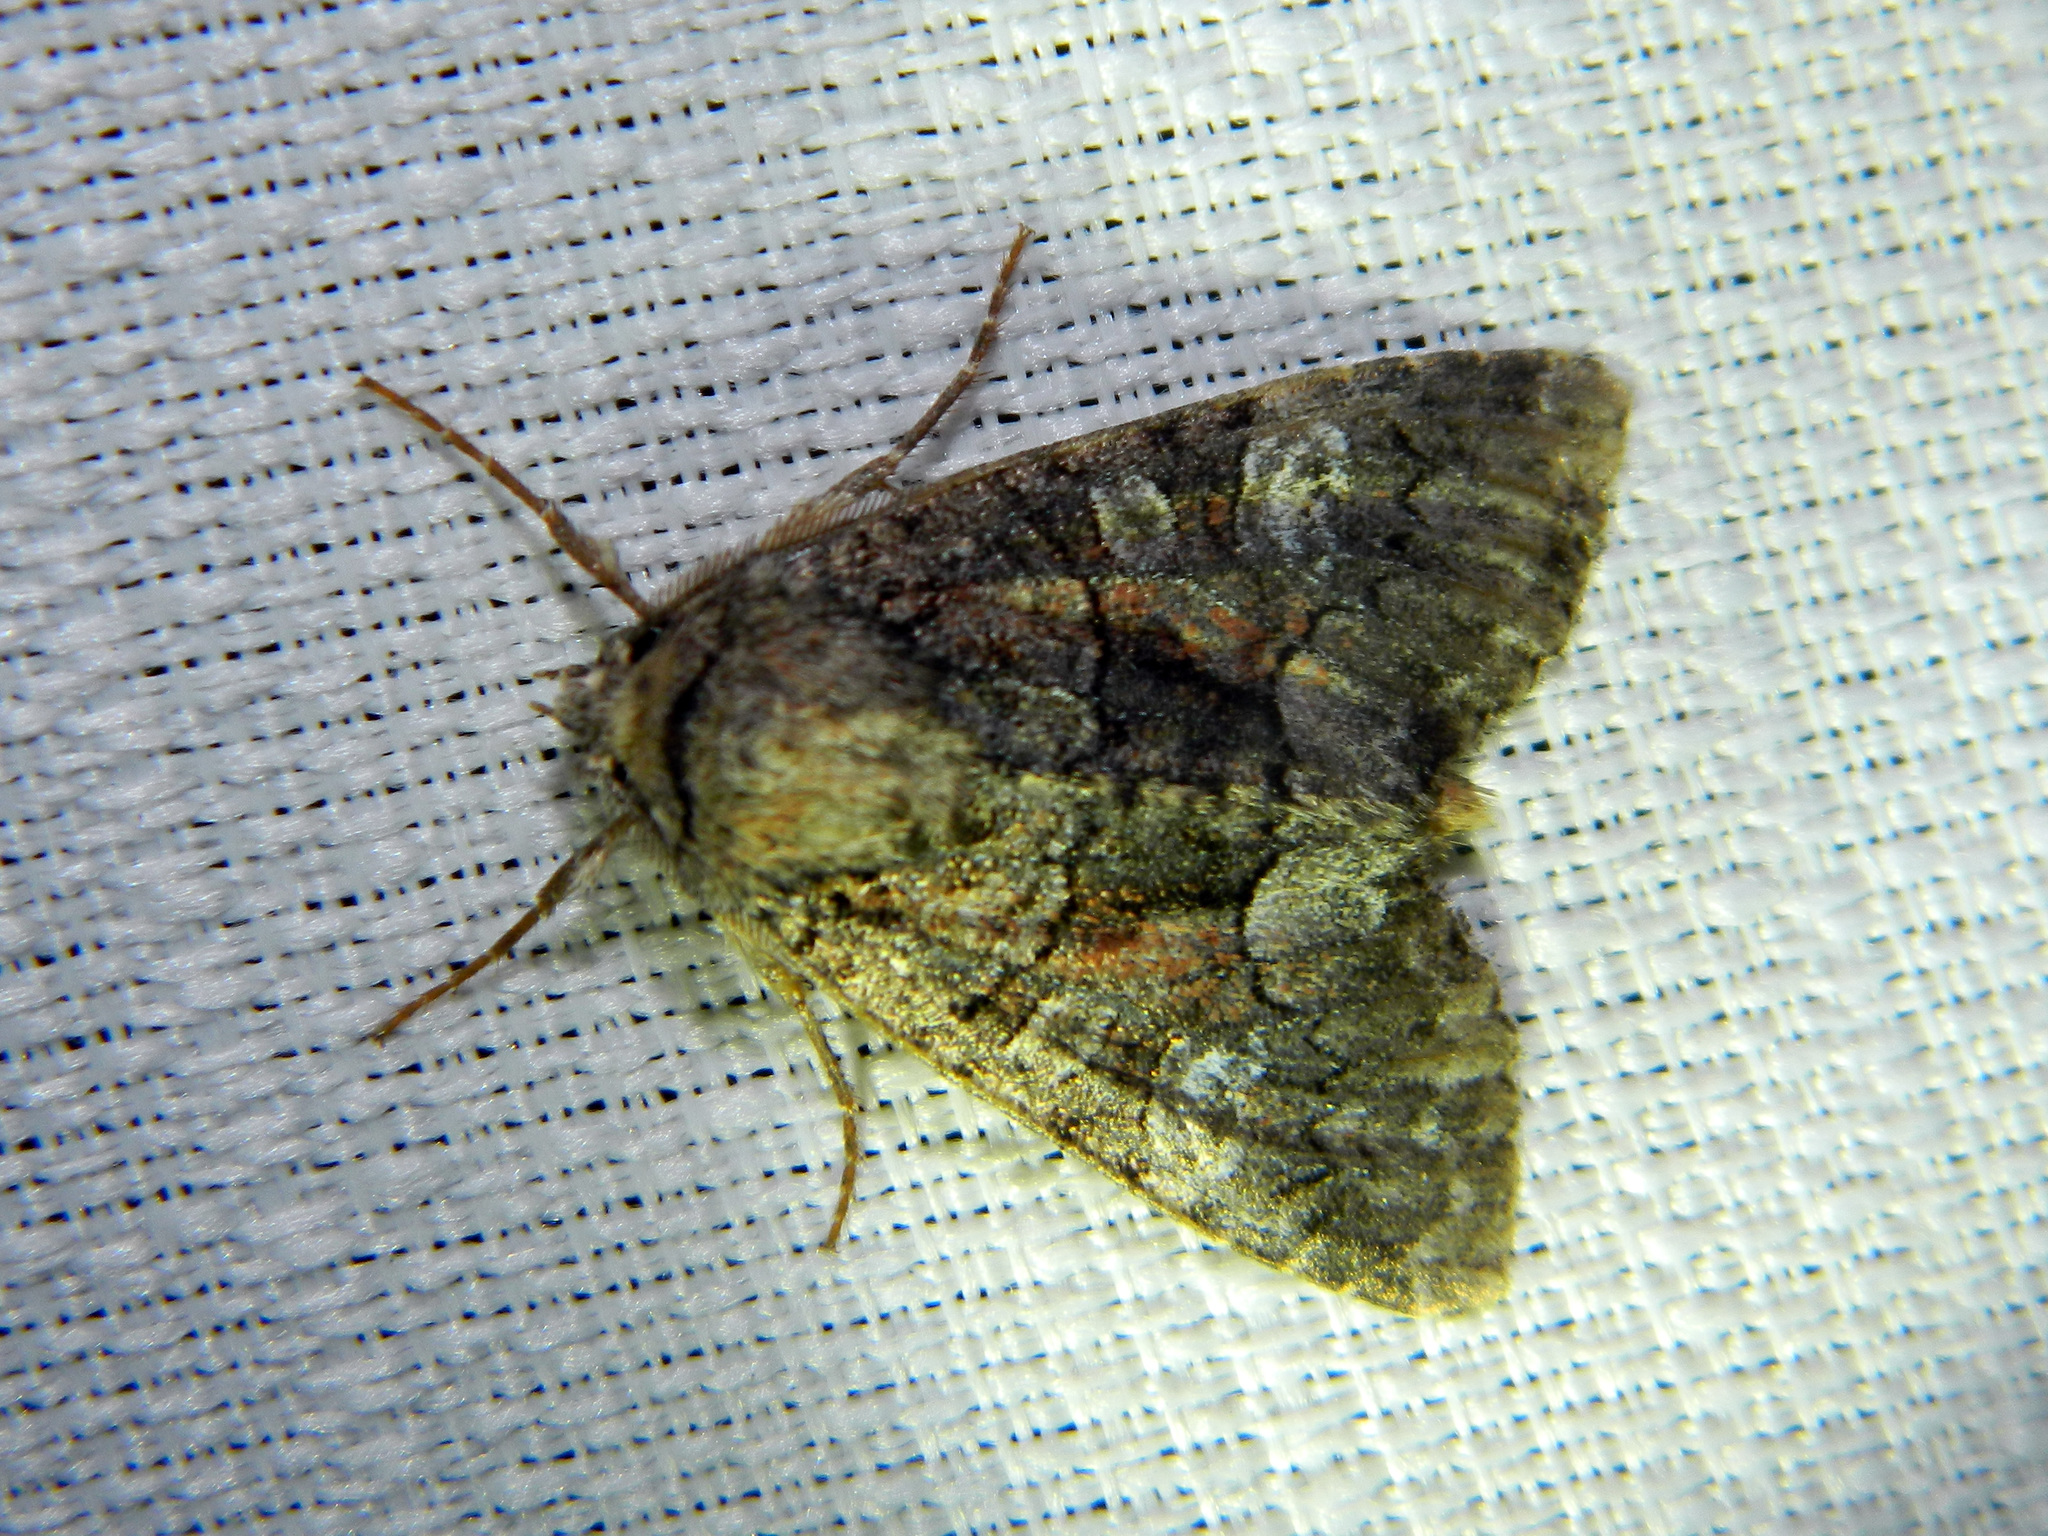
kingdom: Animalia
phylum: Arthropoda
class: Insecta
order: Lepidoptera
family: Noctuidae
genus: Fishia
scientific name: Fishia illocata
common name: Wandering brocade moth
